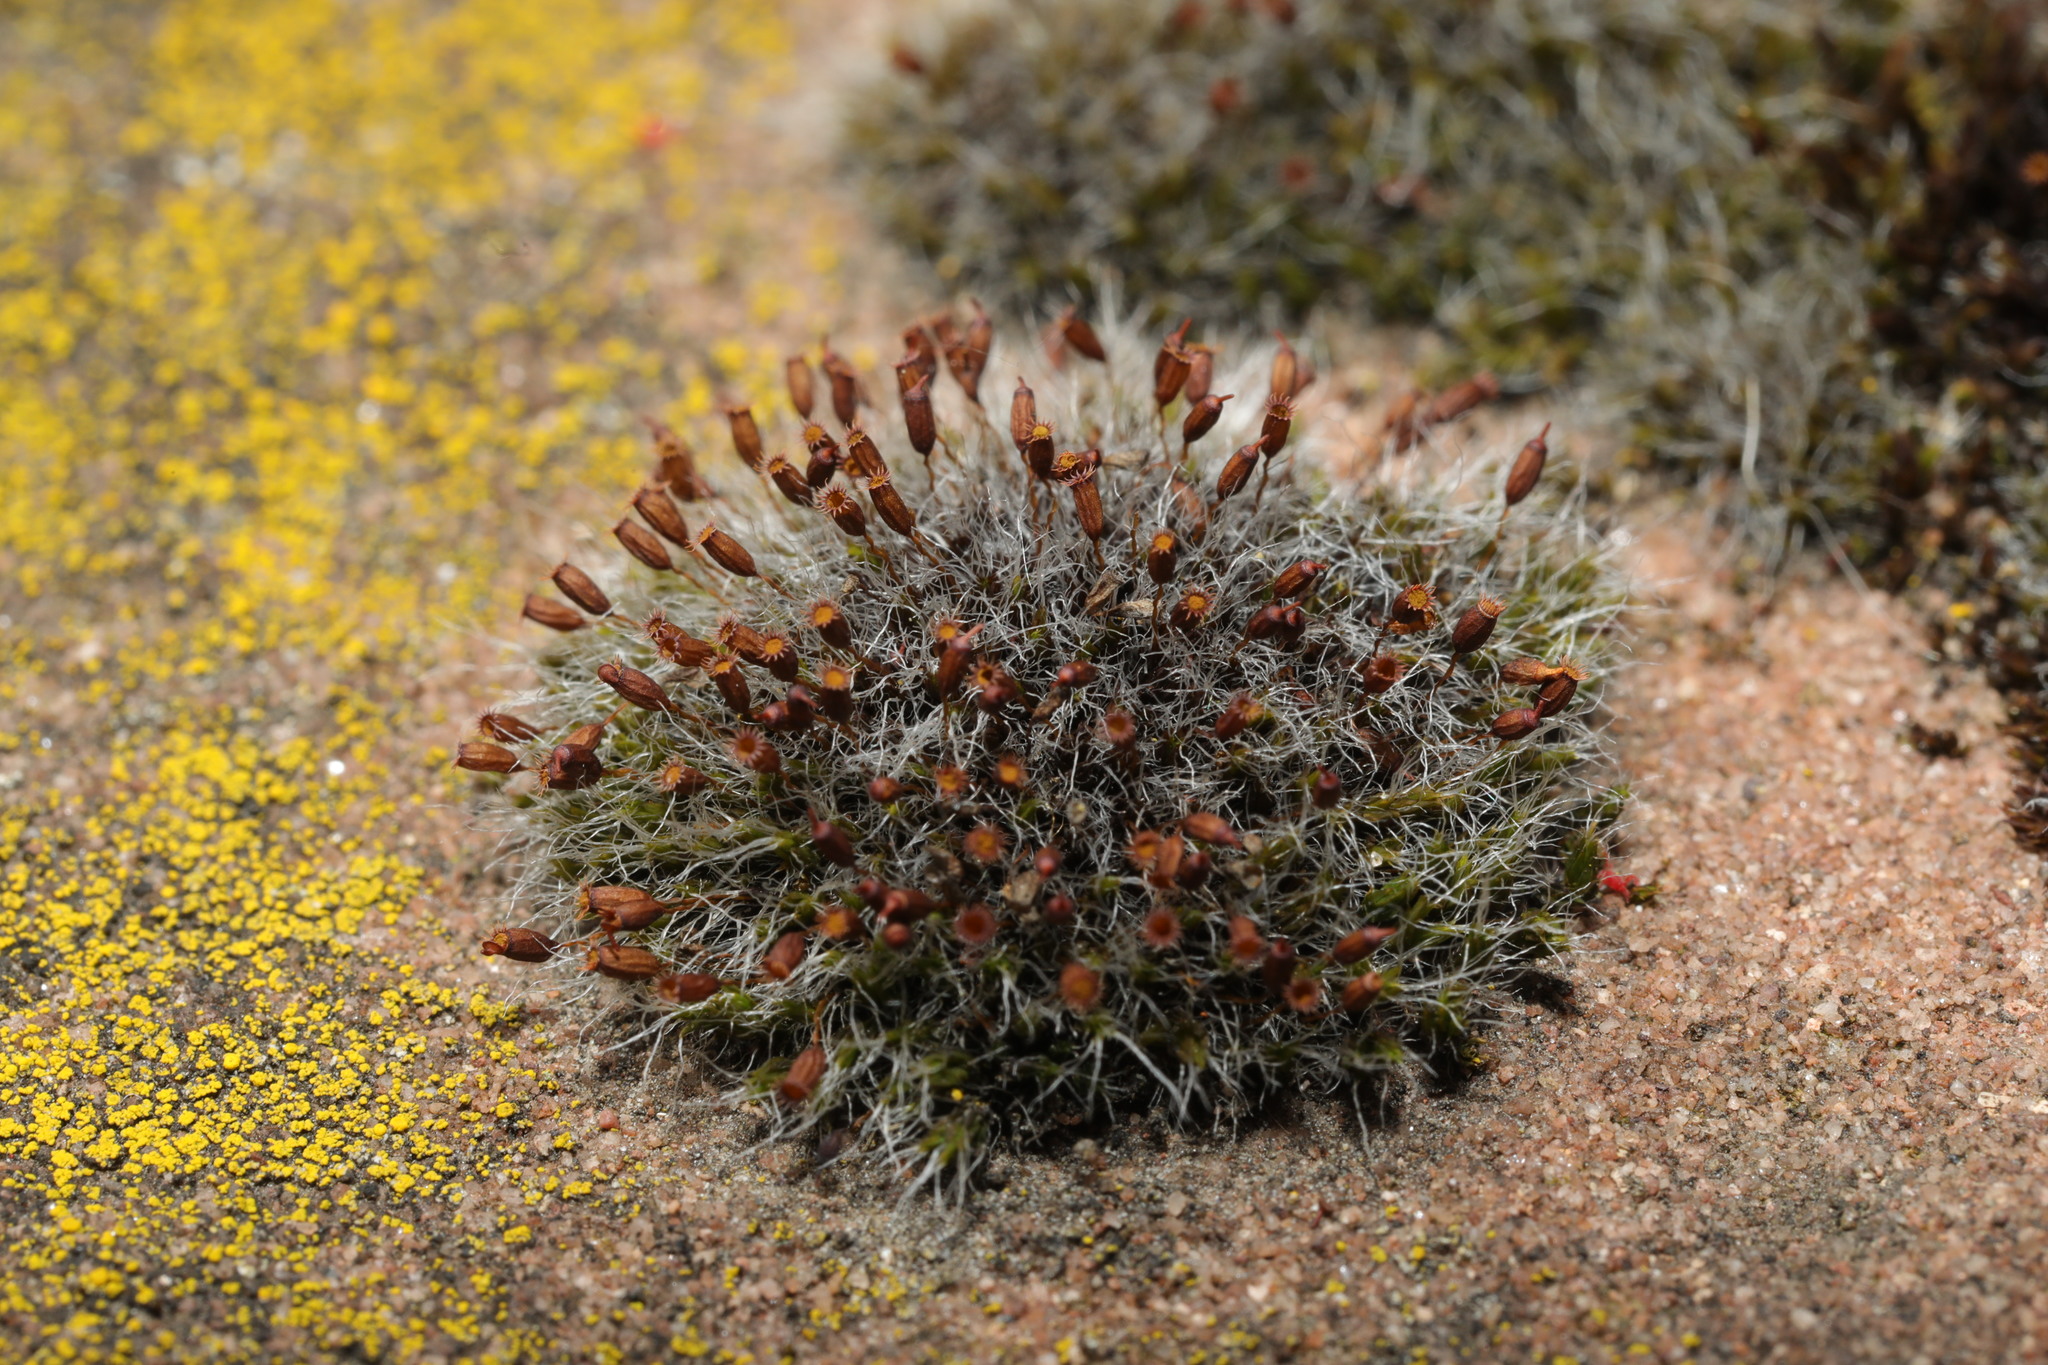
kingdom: Plantae
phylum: Bryophyta
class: Bryopsida
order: Grimmiales
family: Grimmiaceae
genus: Grimmia
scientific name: Grimmia pulvinata
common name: Grey-cushioned grimmia
